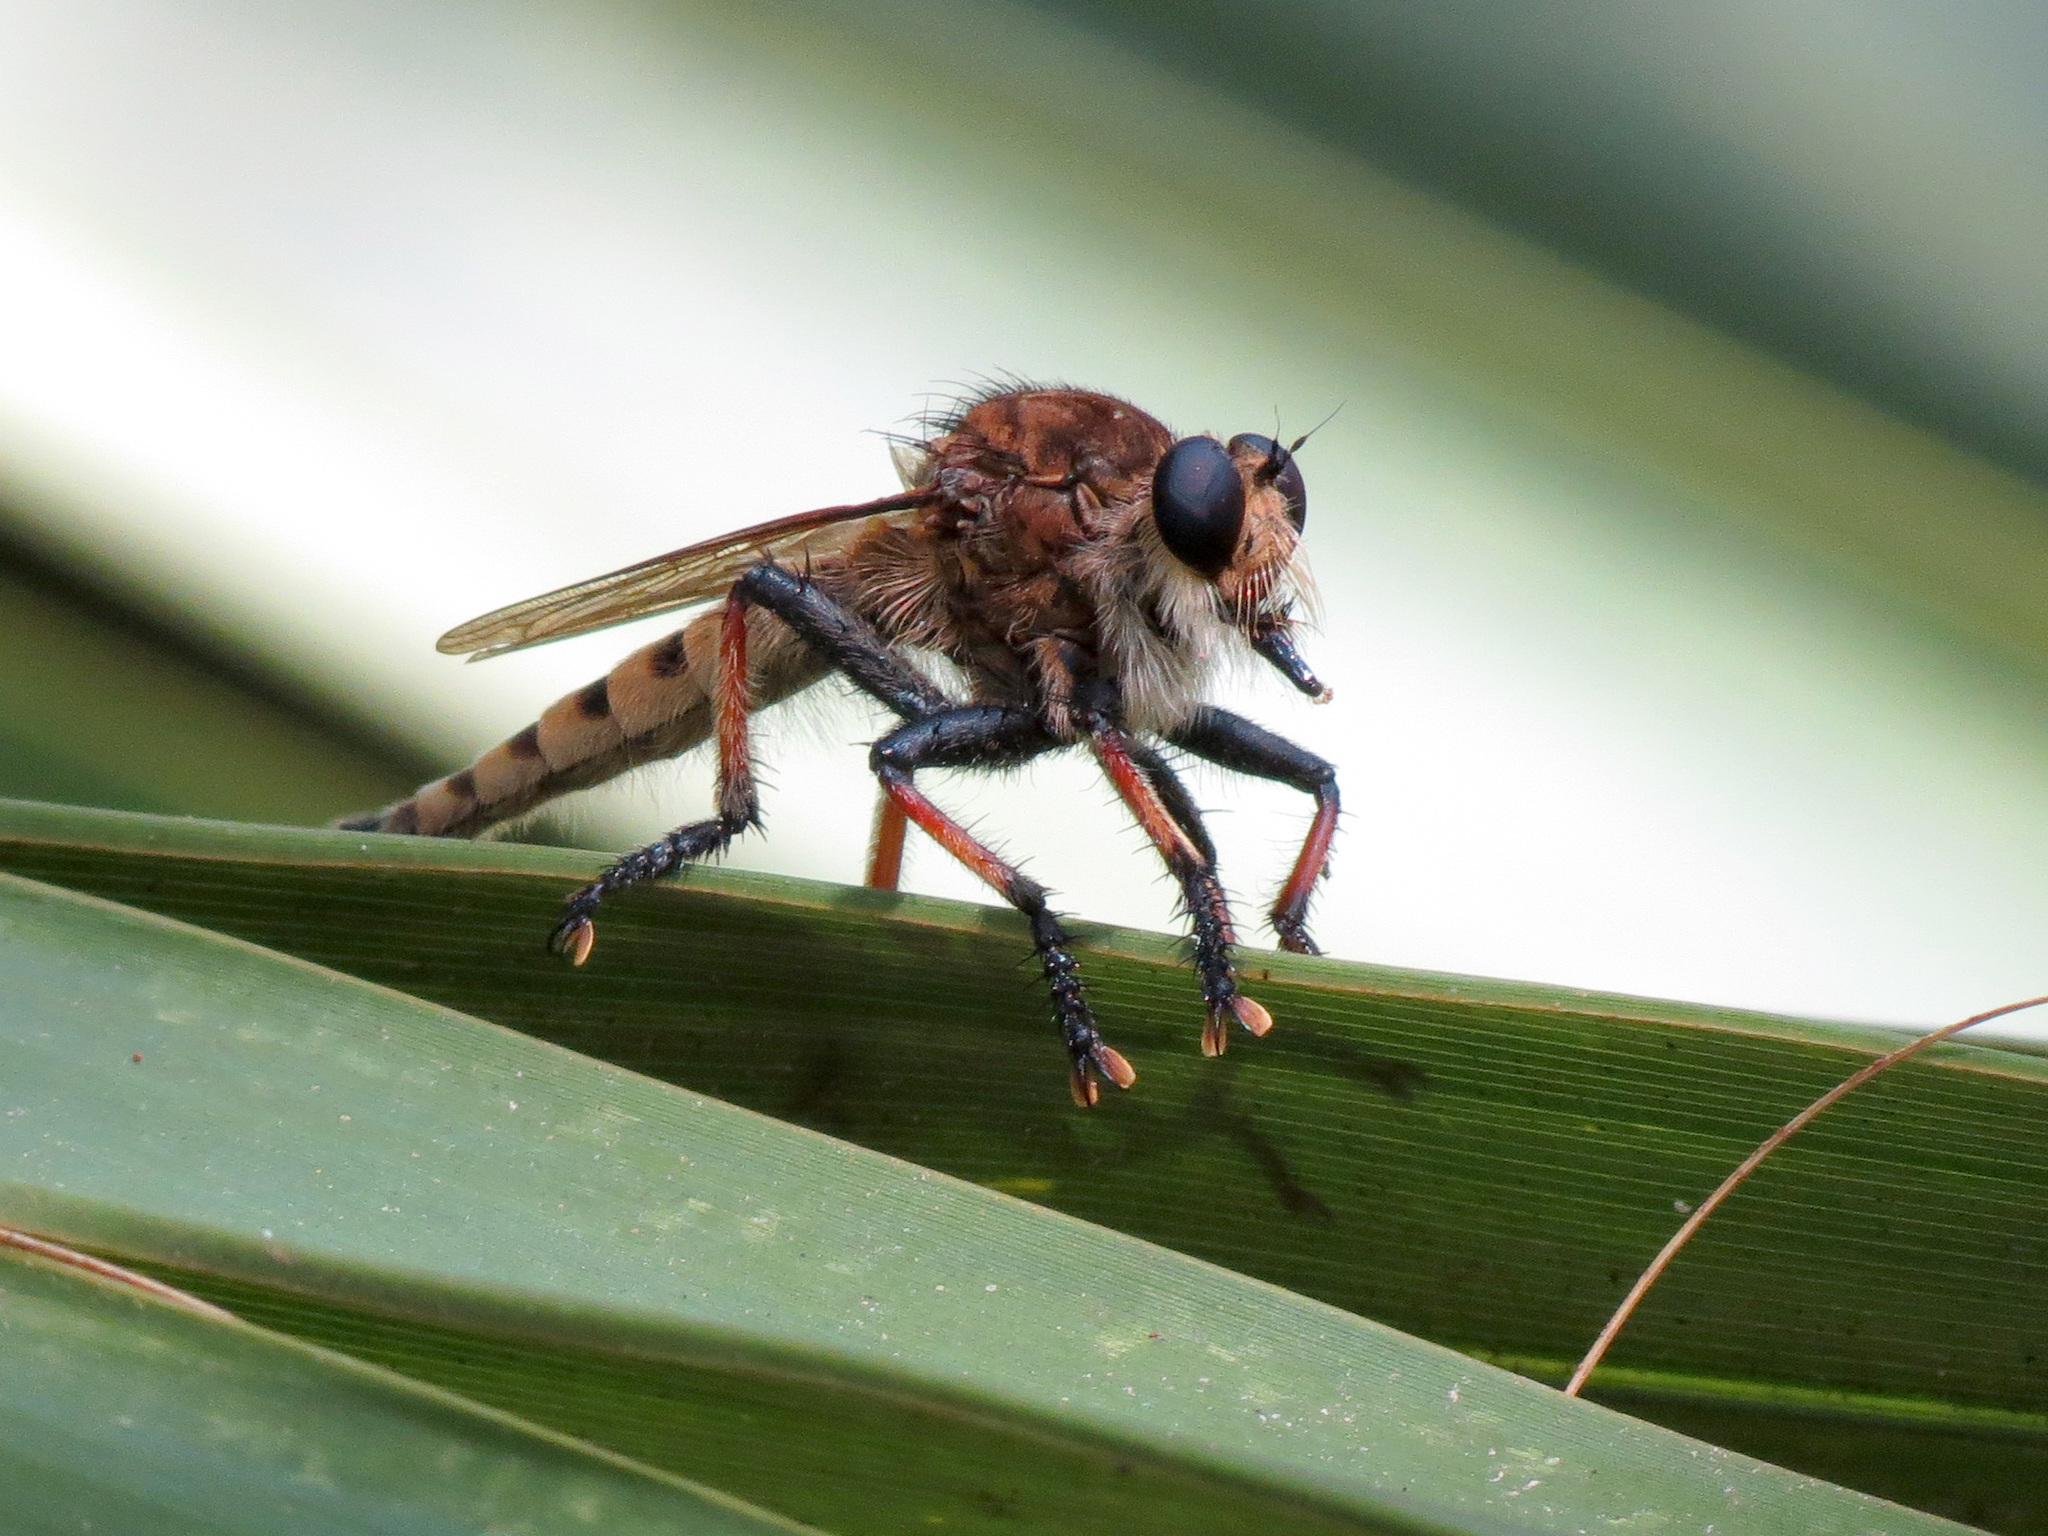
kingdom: Animalia
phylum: Arthropoda
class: Insecta
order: Diptera
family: Asilidae
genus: Promachus
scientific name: Promachus rufipes
